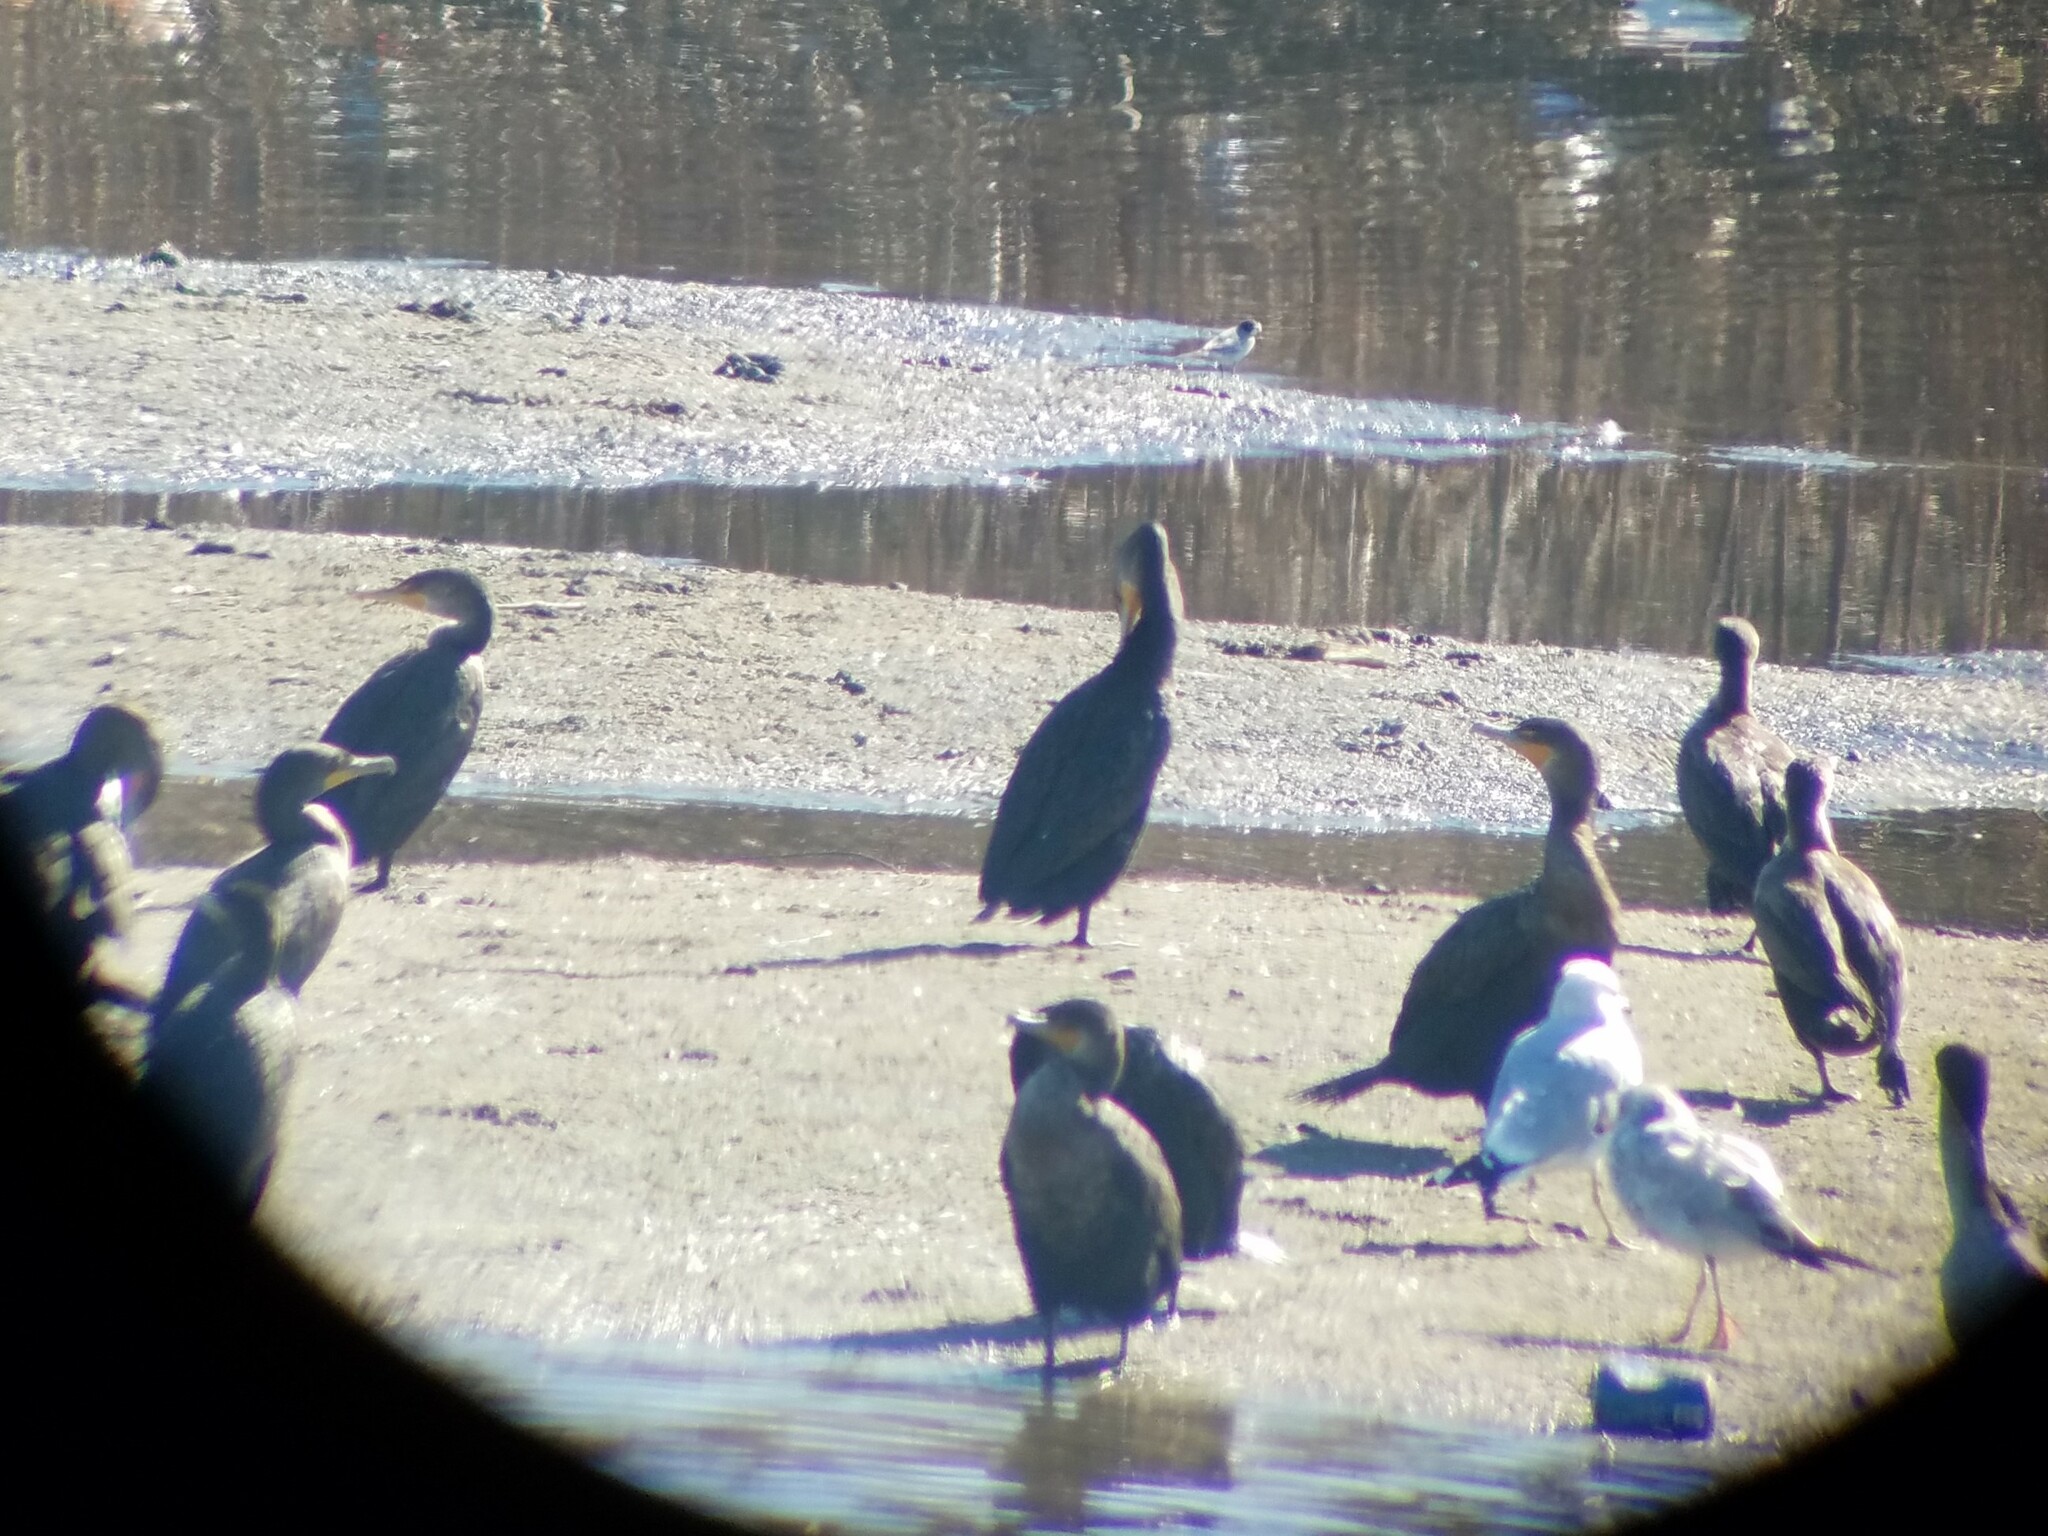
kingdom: Animalia
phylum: Chordata
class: Aves
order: Suliformes
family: Phalacrocoracidae
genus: Phalacrocorax
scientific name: Phalacrocorax auritus
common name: Double-crested cormorant
